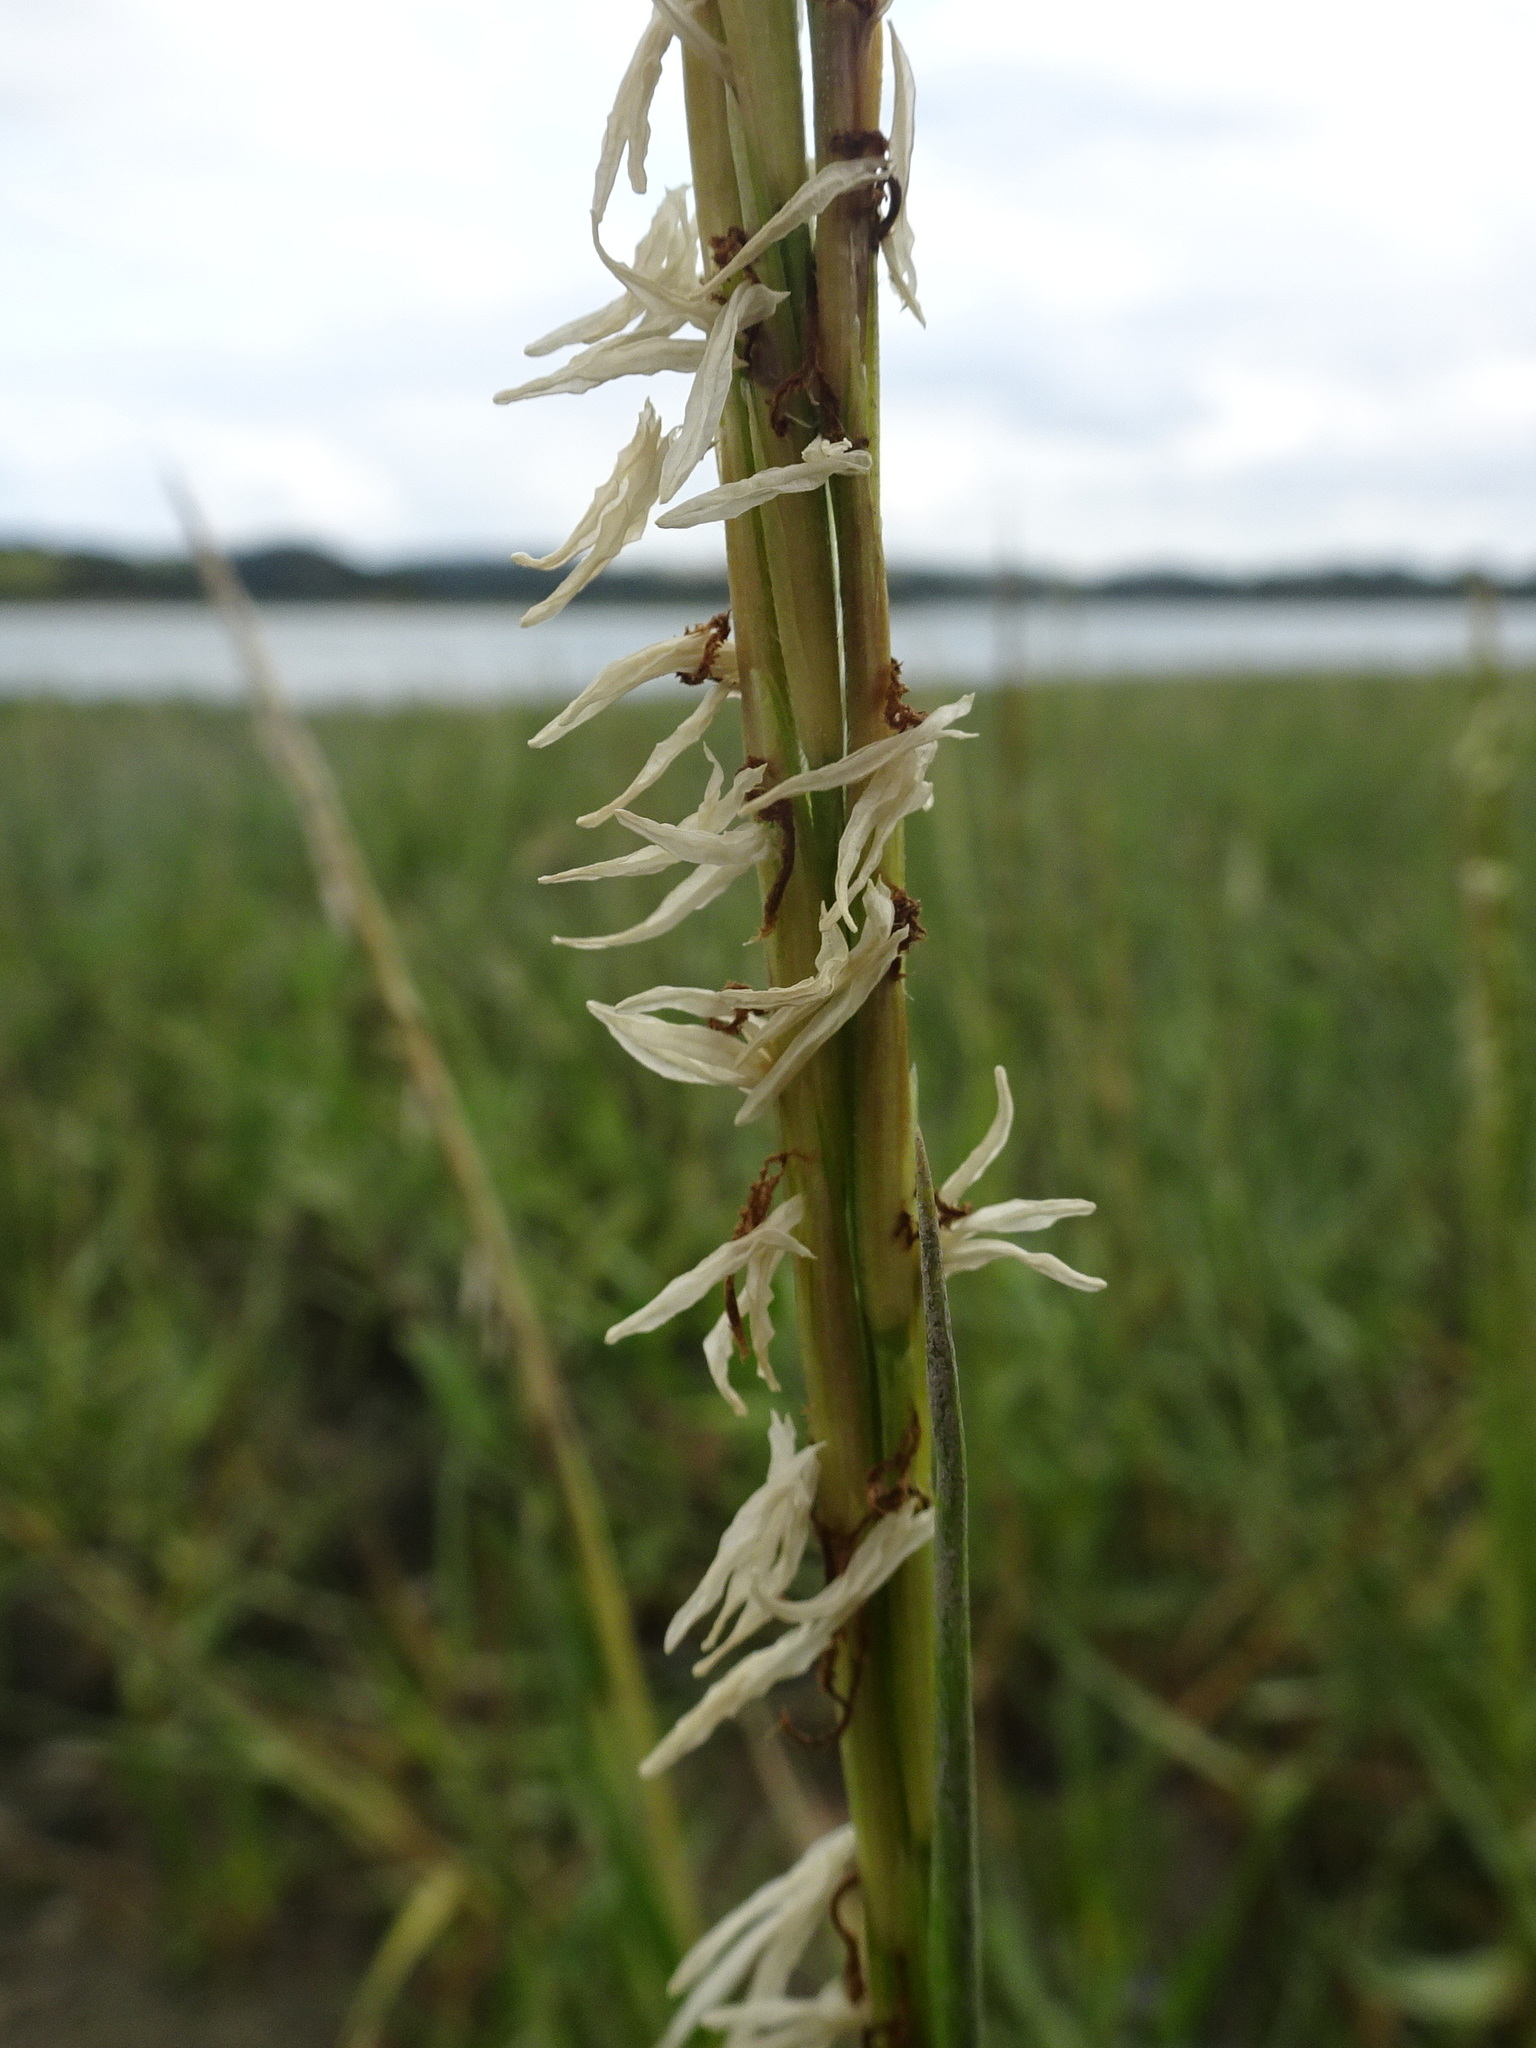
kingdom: Plantae
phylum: Tracheophyta
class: Liliopsida
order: Poales
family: Poaceae
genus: Sporobolus
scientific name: Sporobolus anglicus
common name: English cordgrass
